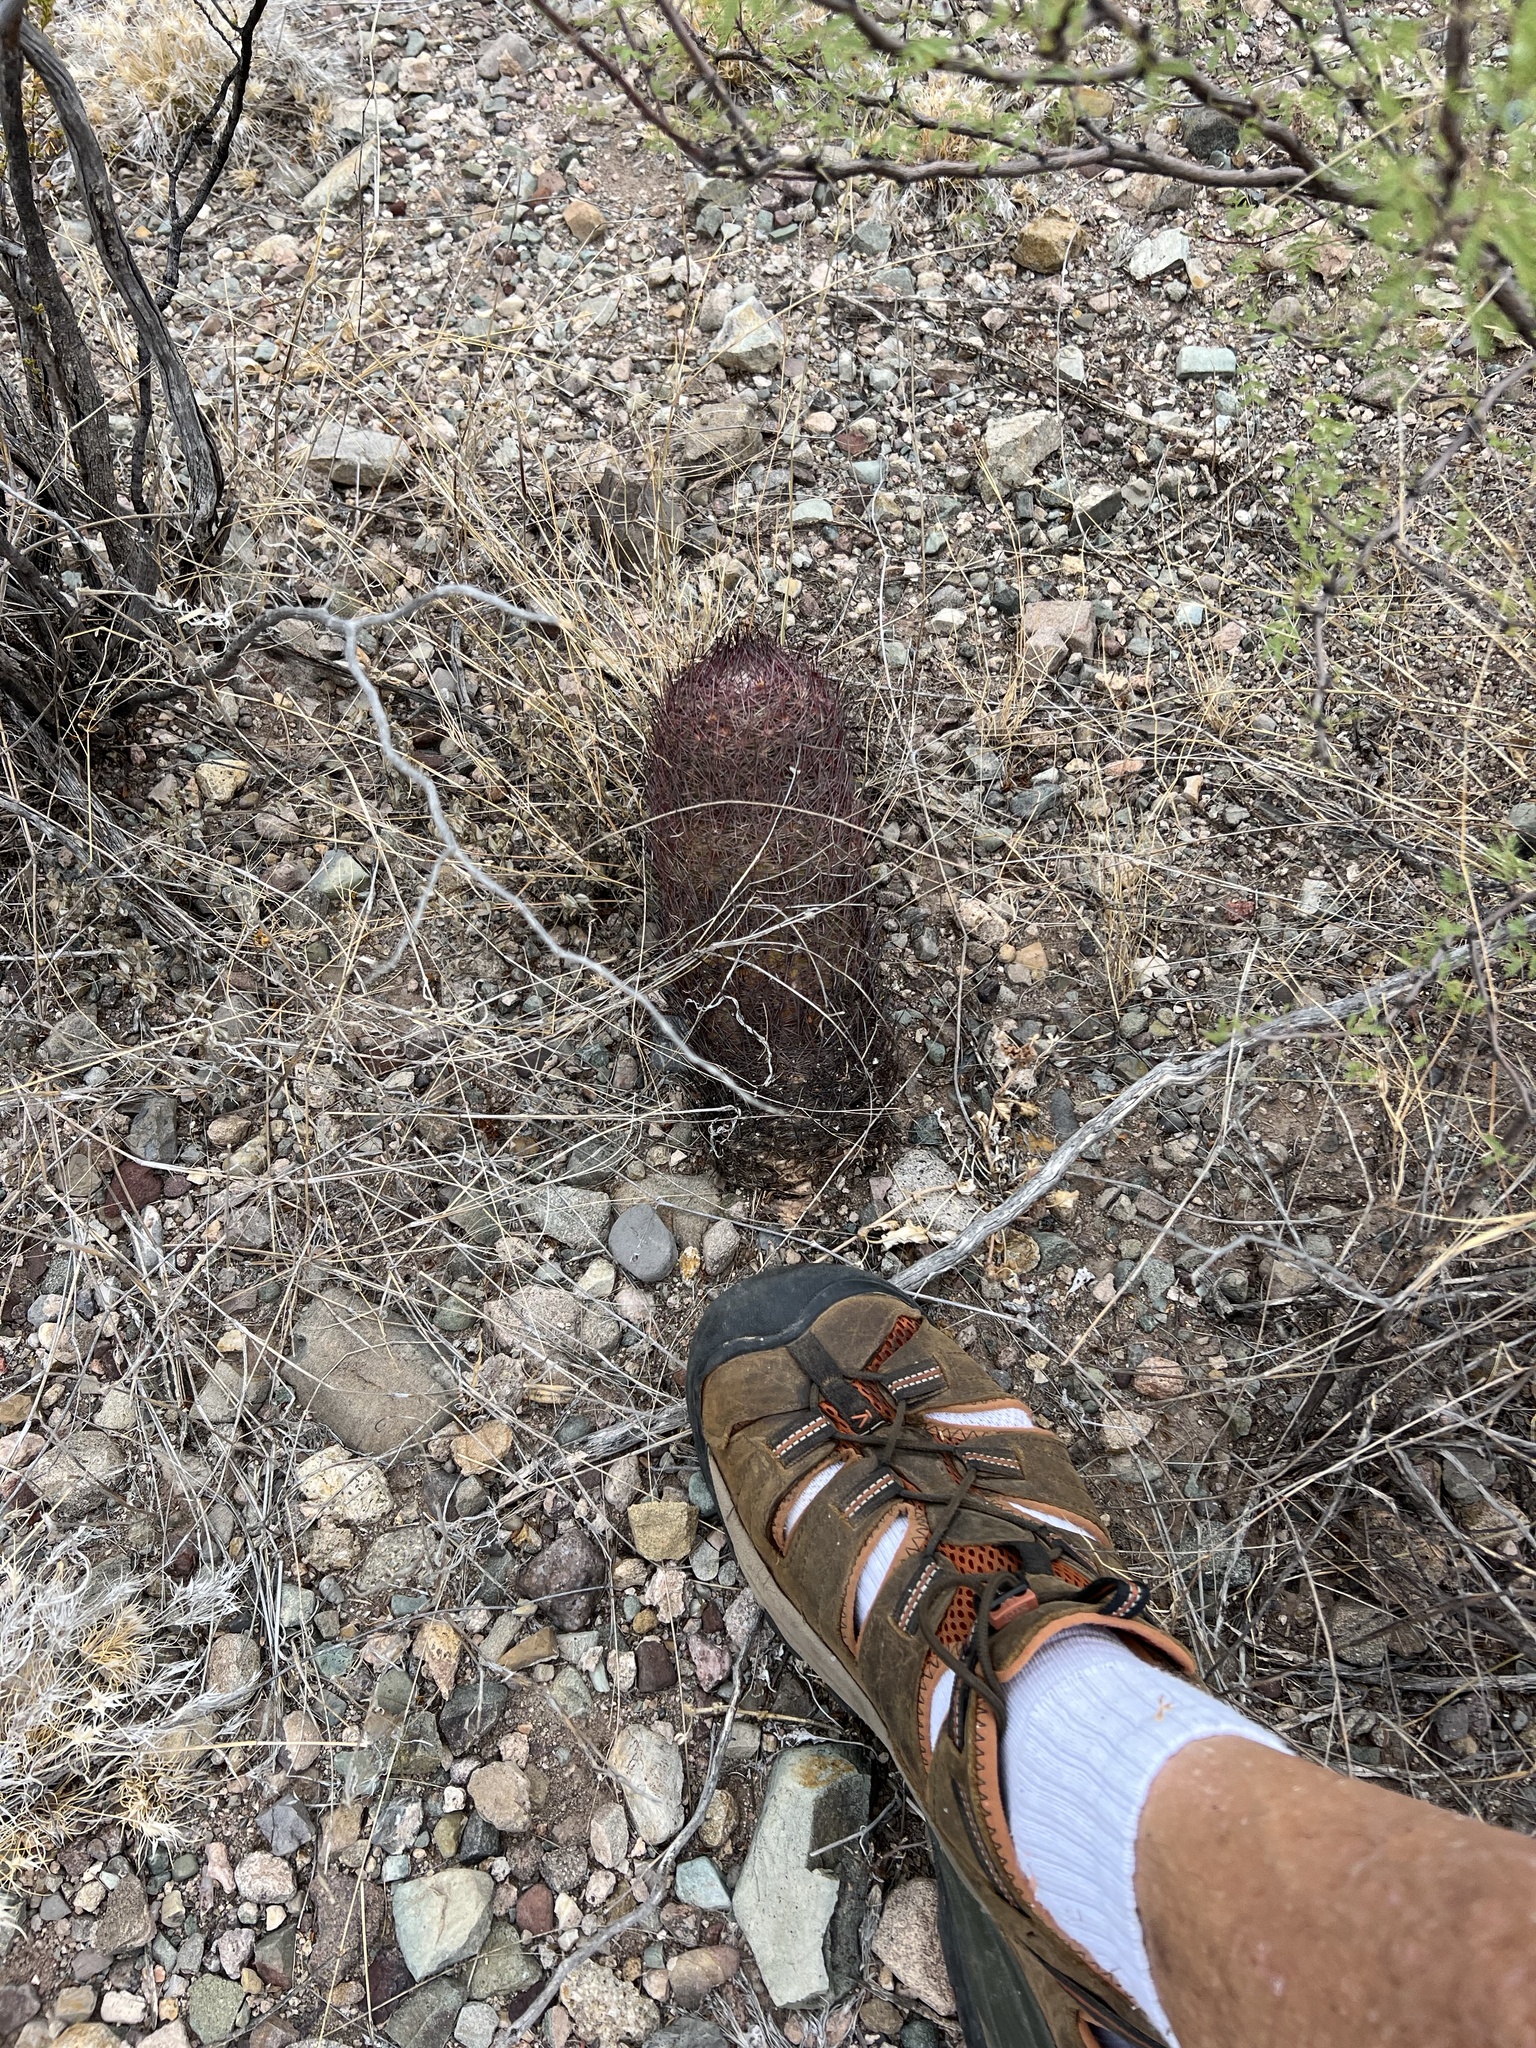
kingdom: Plantae
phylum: Tracheophyta
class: Magnoliopsida
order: Caryophyllales
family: Cactaceae
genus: Sclerocactus
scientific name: Sclerocactus johnsonii
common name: Eight-spine fishhook cactus
